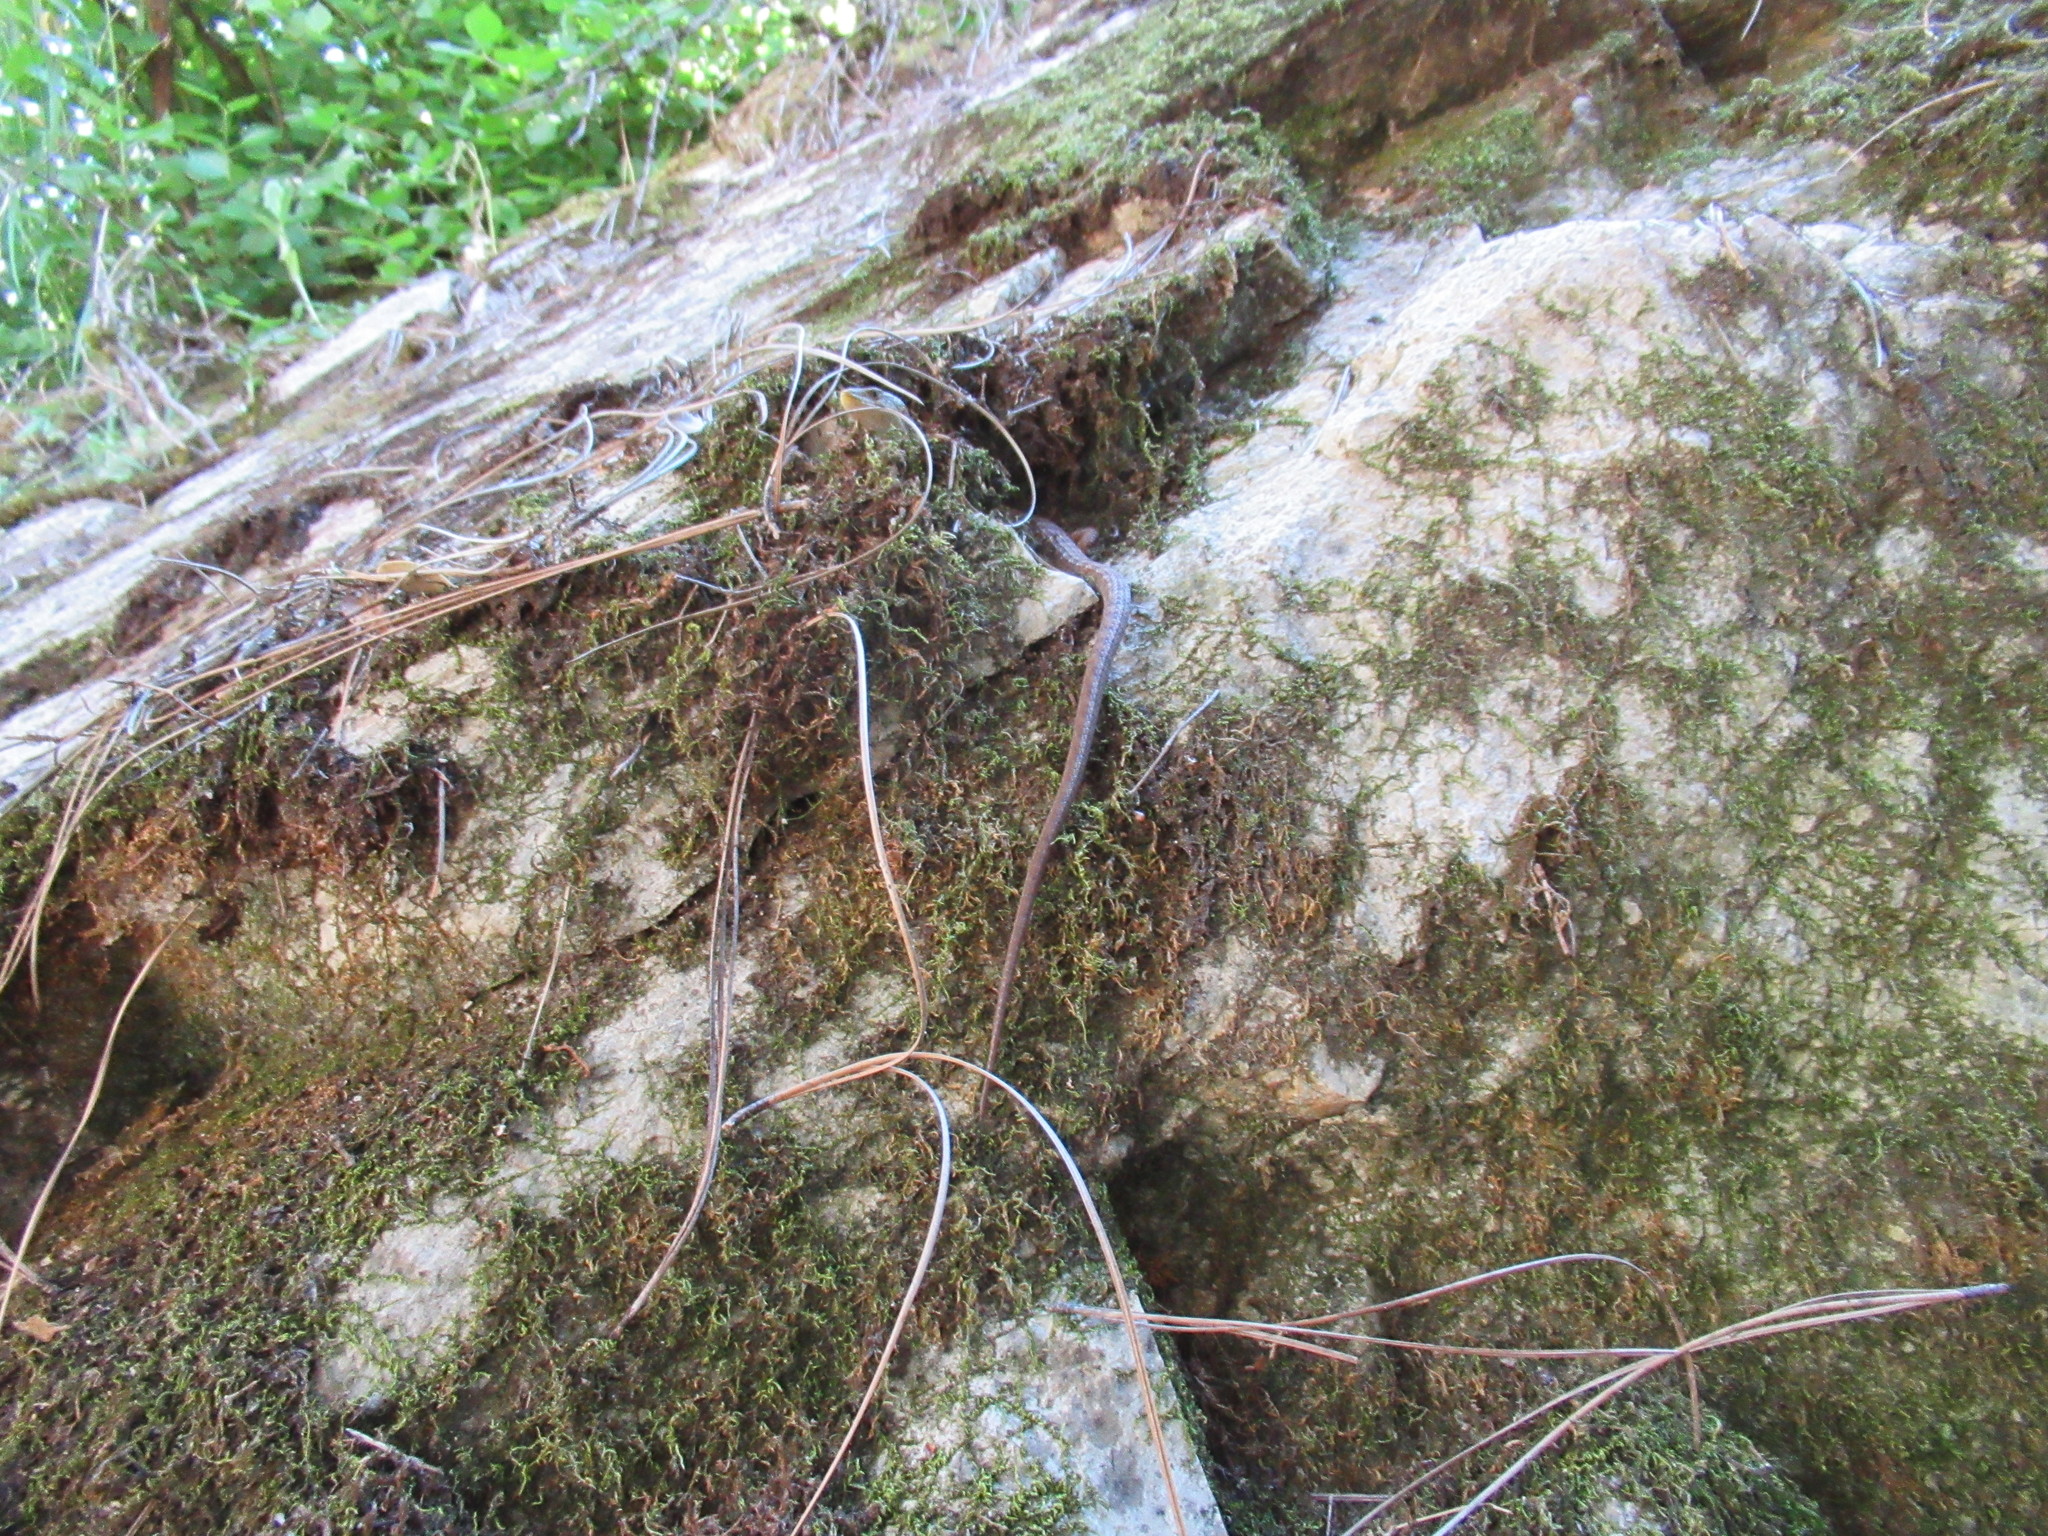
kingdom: Animalia
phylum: Chordata
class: Squamata
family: Anguidae
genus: Elgaria
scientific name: Elgaria multicarinata
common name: Southern alligator lizard
